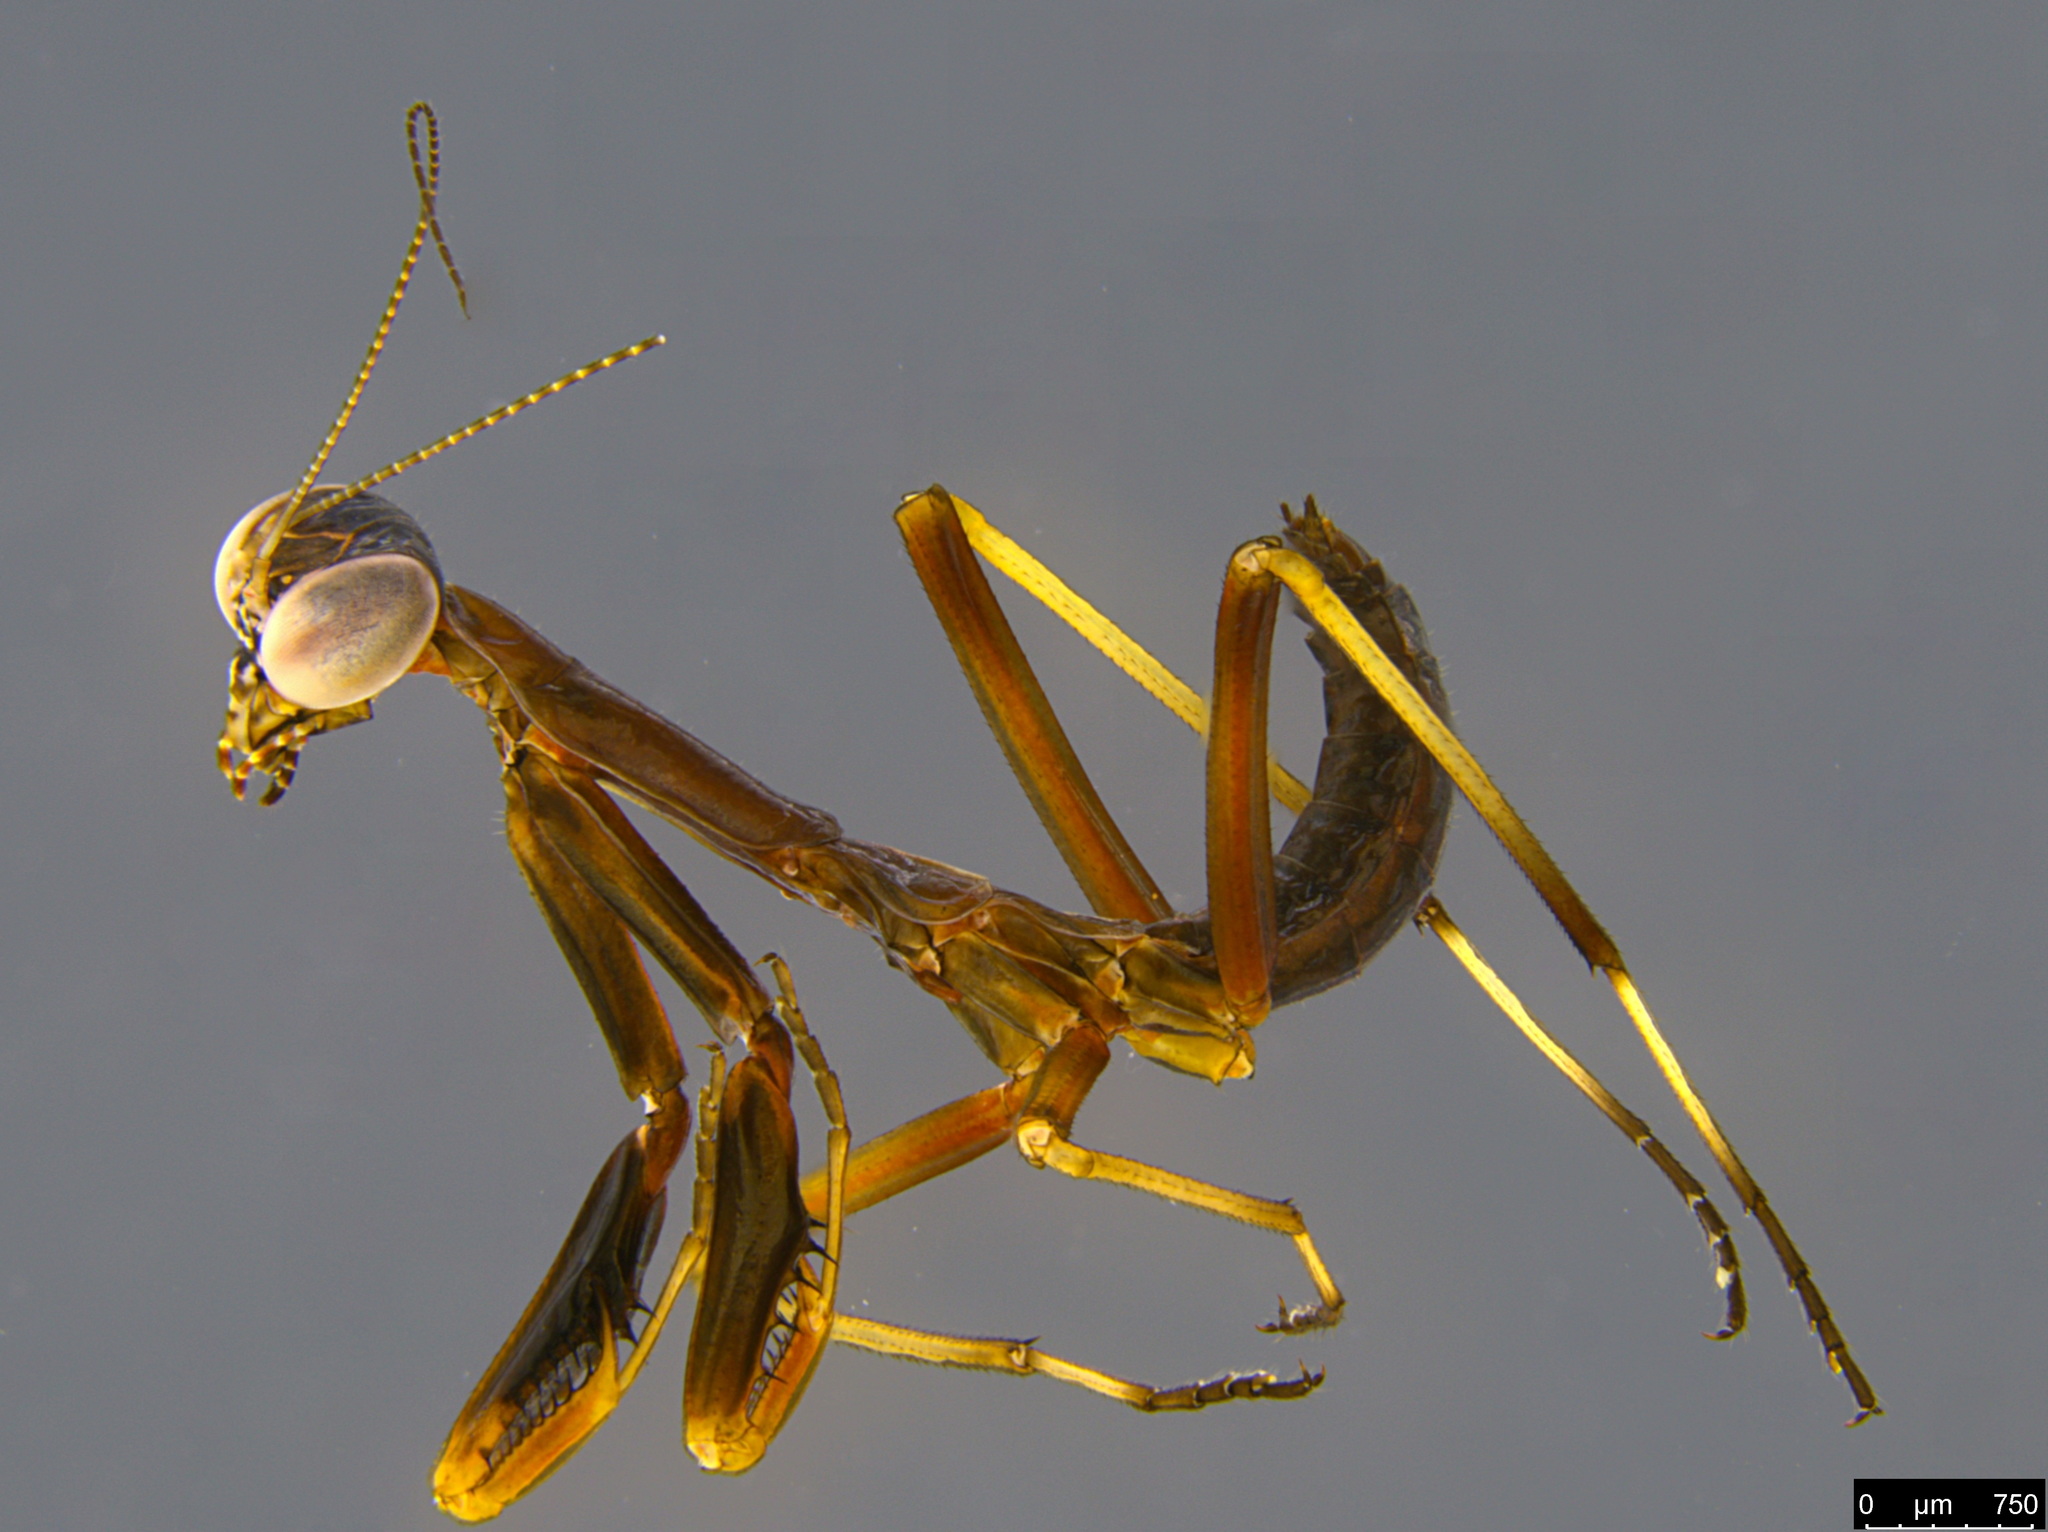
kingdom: Animalia
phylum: Arthropoda
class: Insecta
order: Mantodea
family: Mantidae
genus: Pseudomantis
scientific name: Pseudomantis albofimbriata
